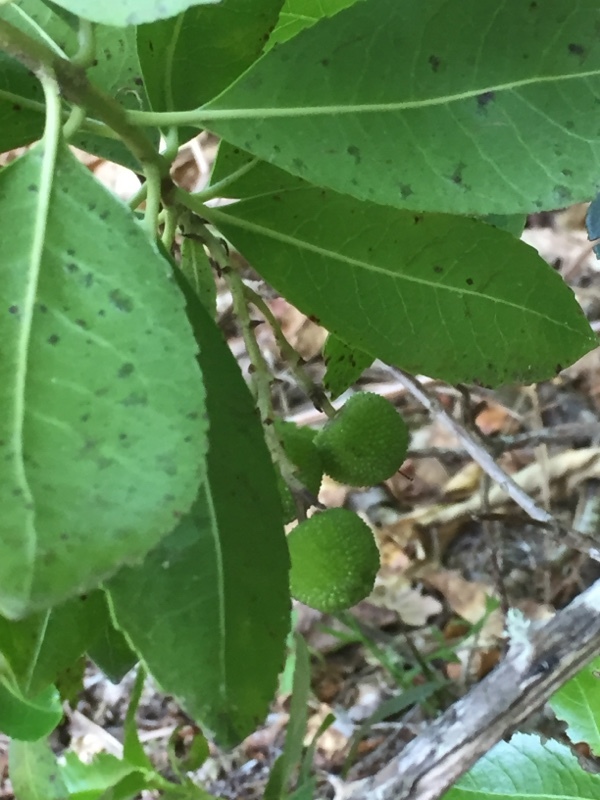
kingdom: Plantae
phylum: Tracheophyta
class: Magnoliopsida
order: Ericales
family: Ericaceae
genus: Arbutus
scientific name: Arbutus unedo
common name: Strawberry-tree
